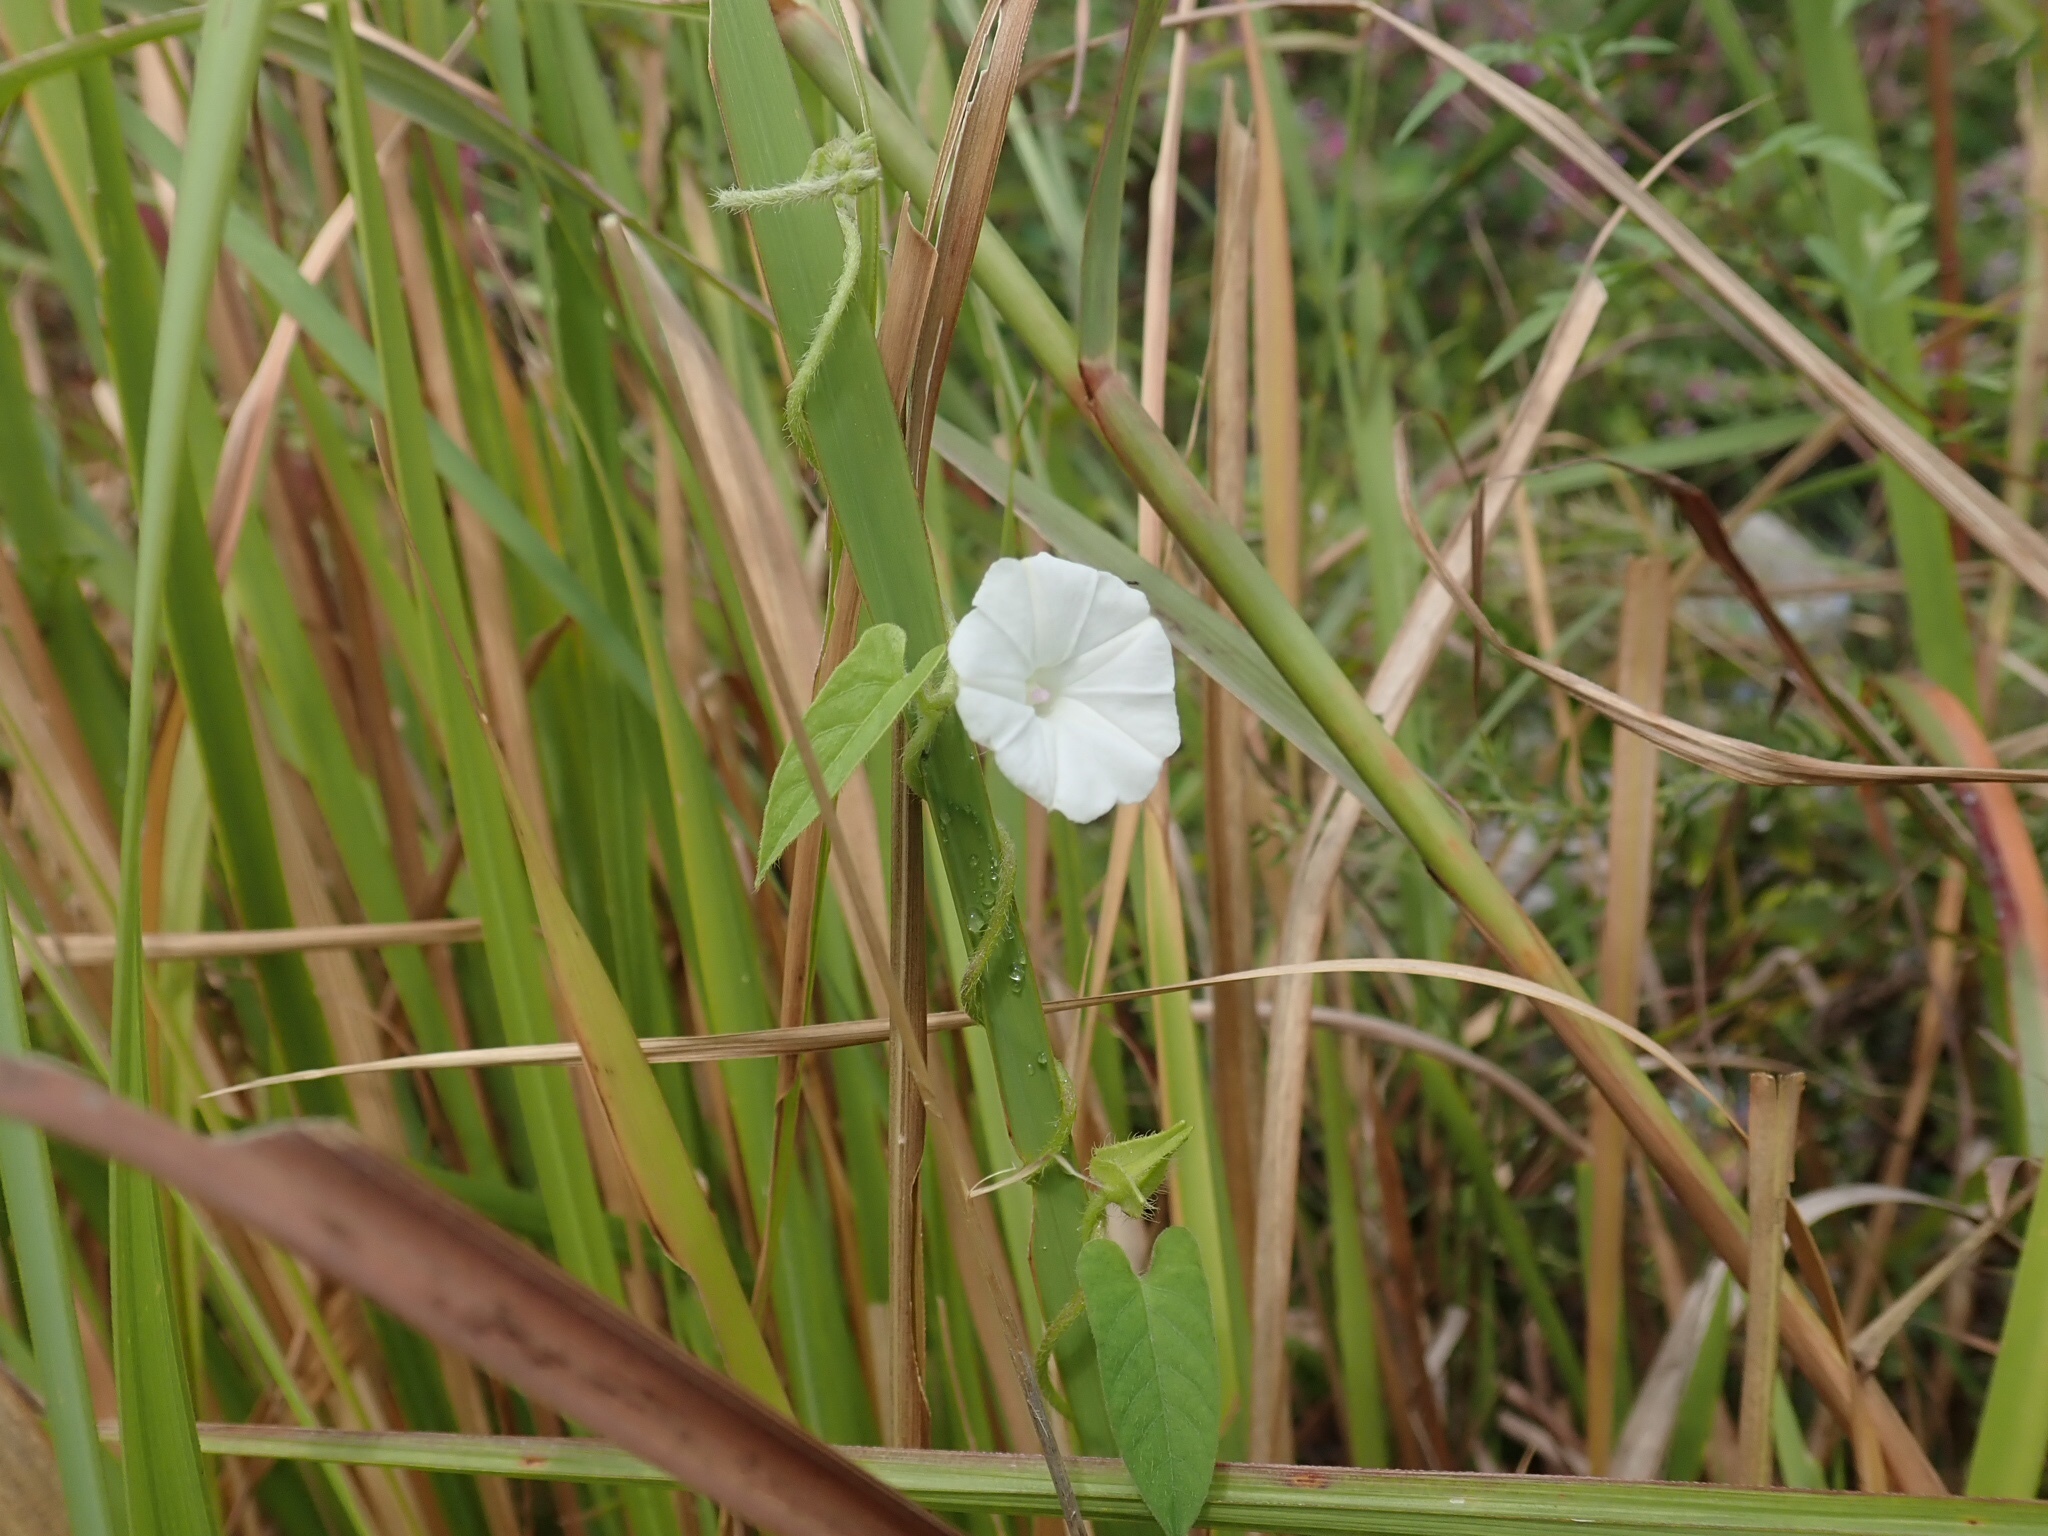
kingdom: Plantae
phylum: Tracheophyta
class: Magnoliopsida
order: Solanales
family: Convolvulaceae
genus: Ipomoea
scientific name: Ipomoea biflora
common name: Bellvine
